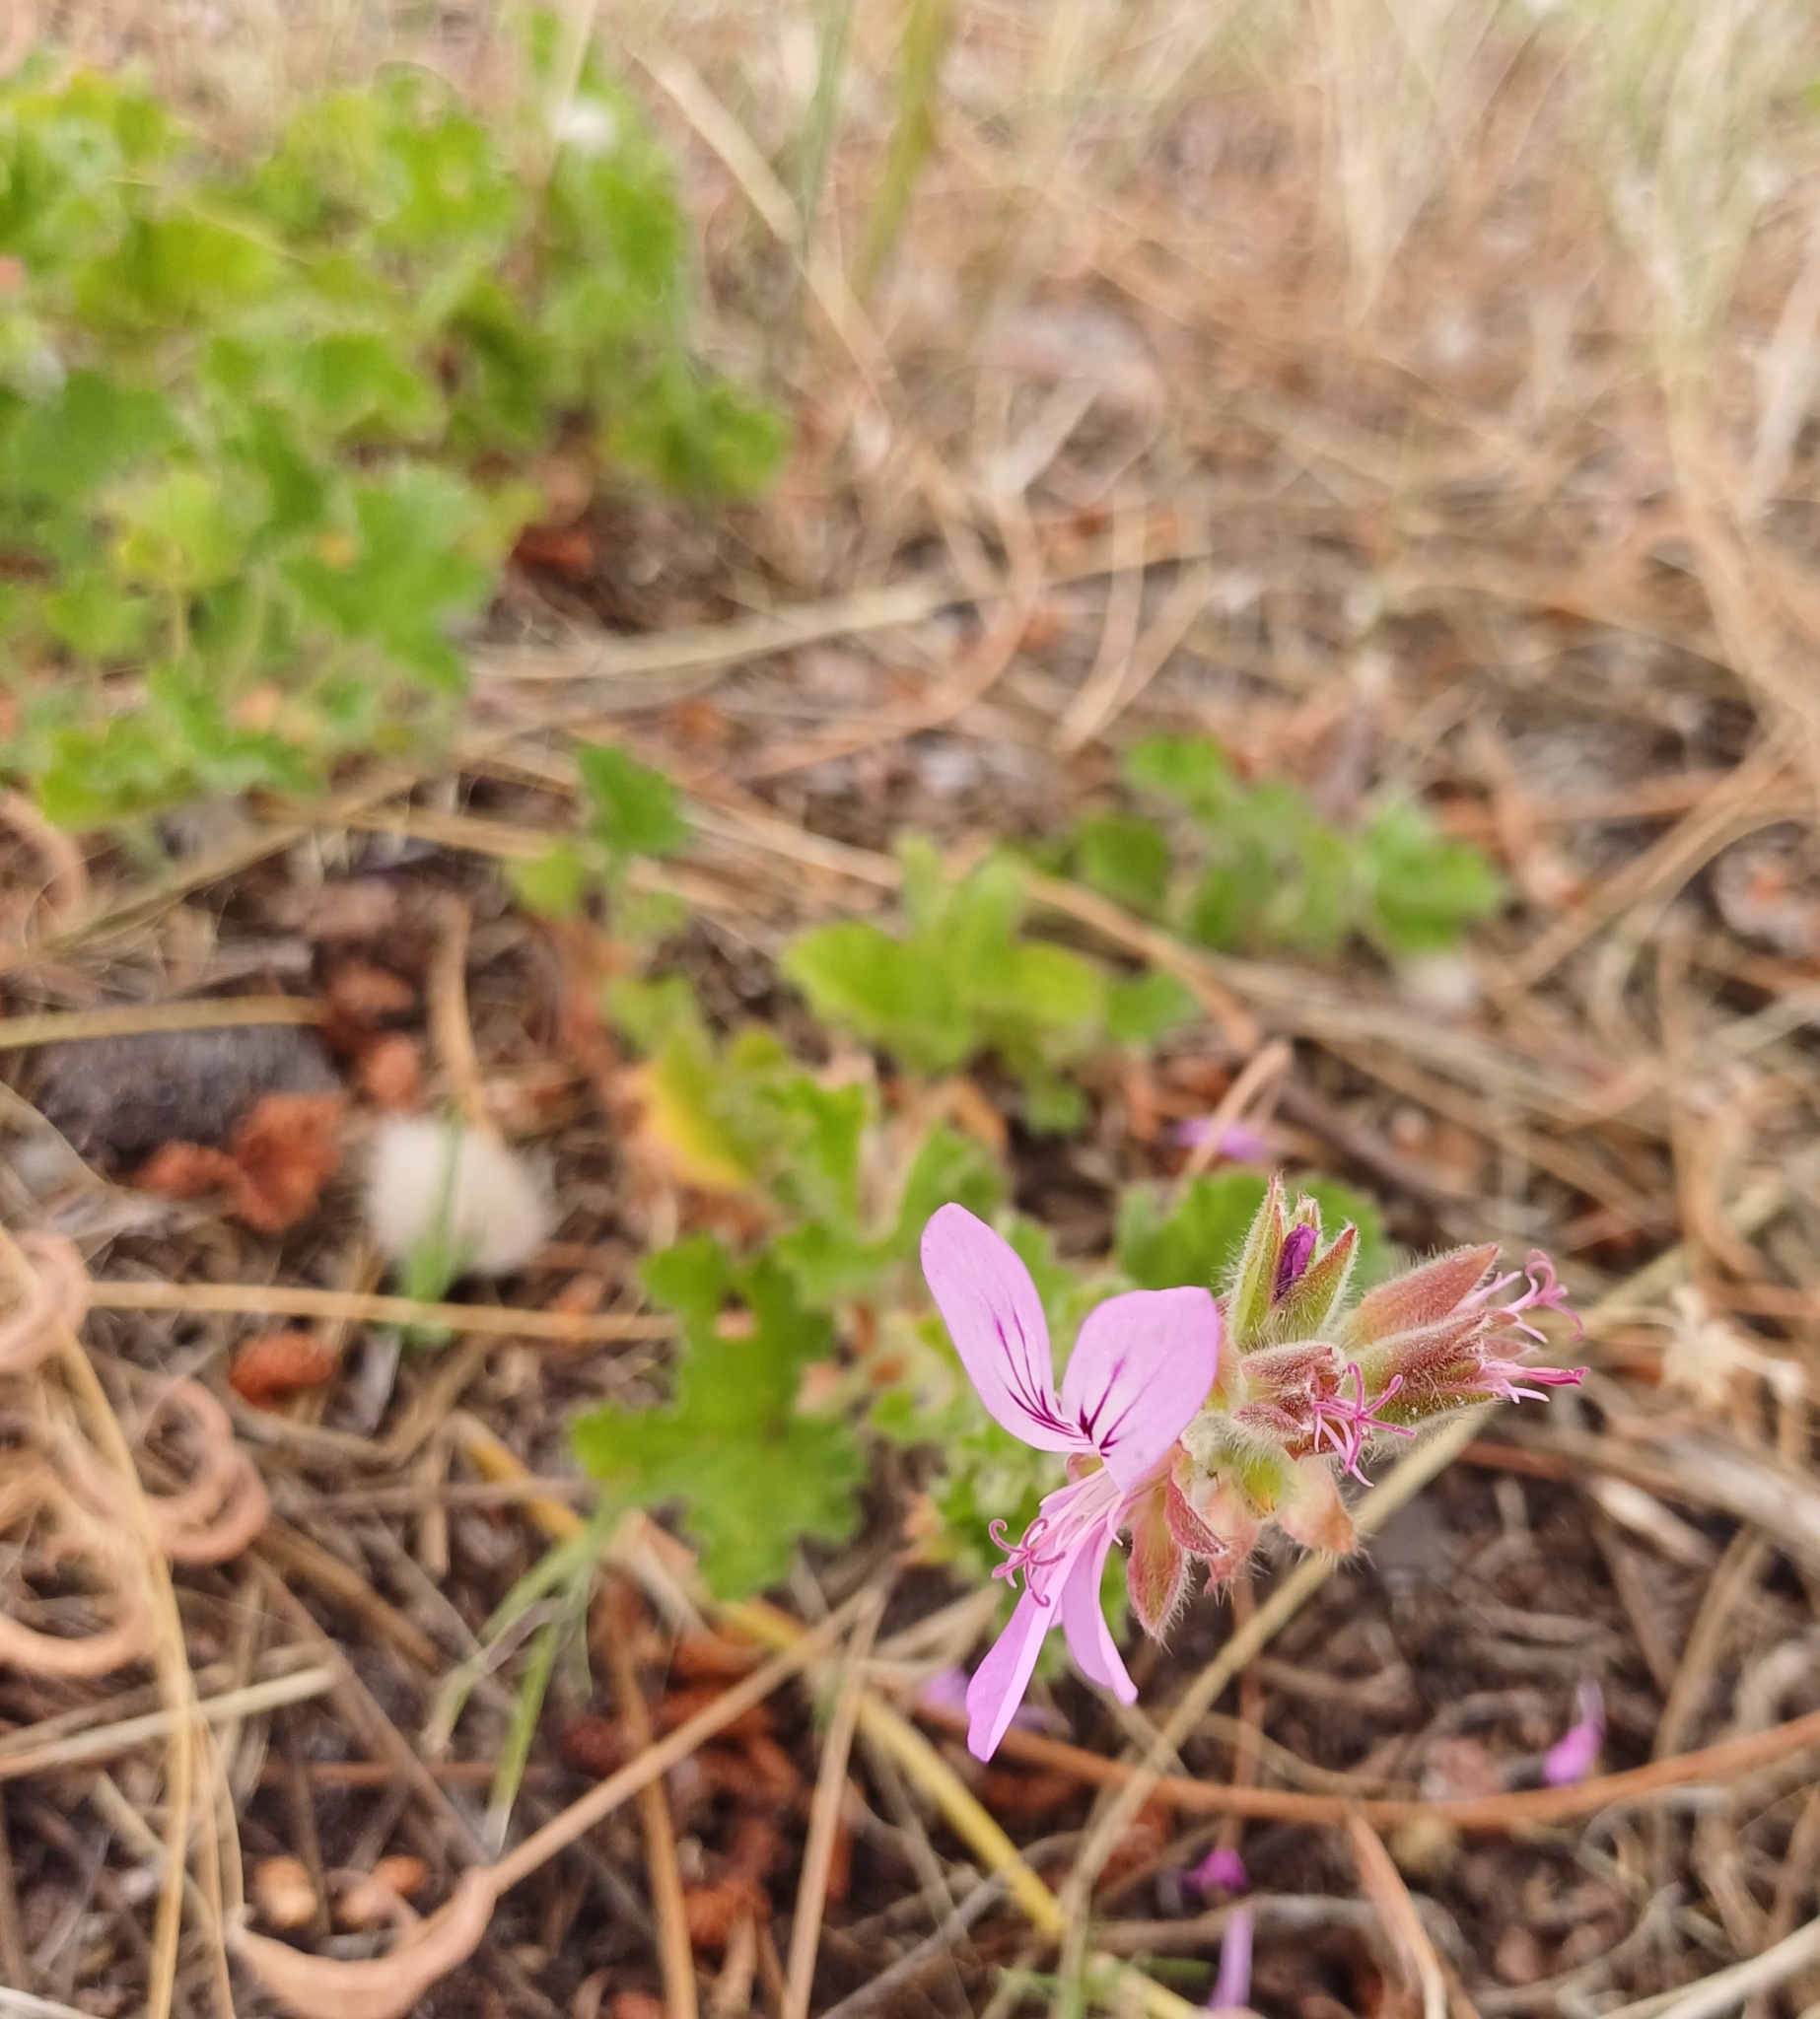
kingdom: Plantae
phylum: Tracheophyta
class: Magnoliopsida
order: Geraniales
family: Geraniaceae
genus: Pelargonium
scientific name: Pelargonium capitatum
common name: Rose scented geranium
